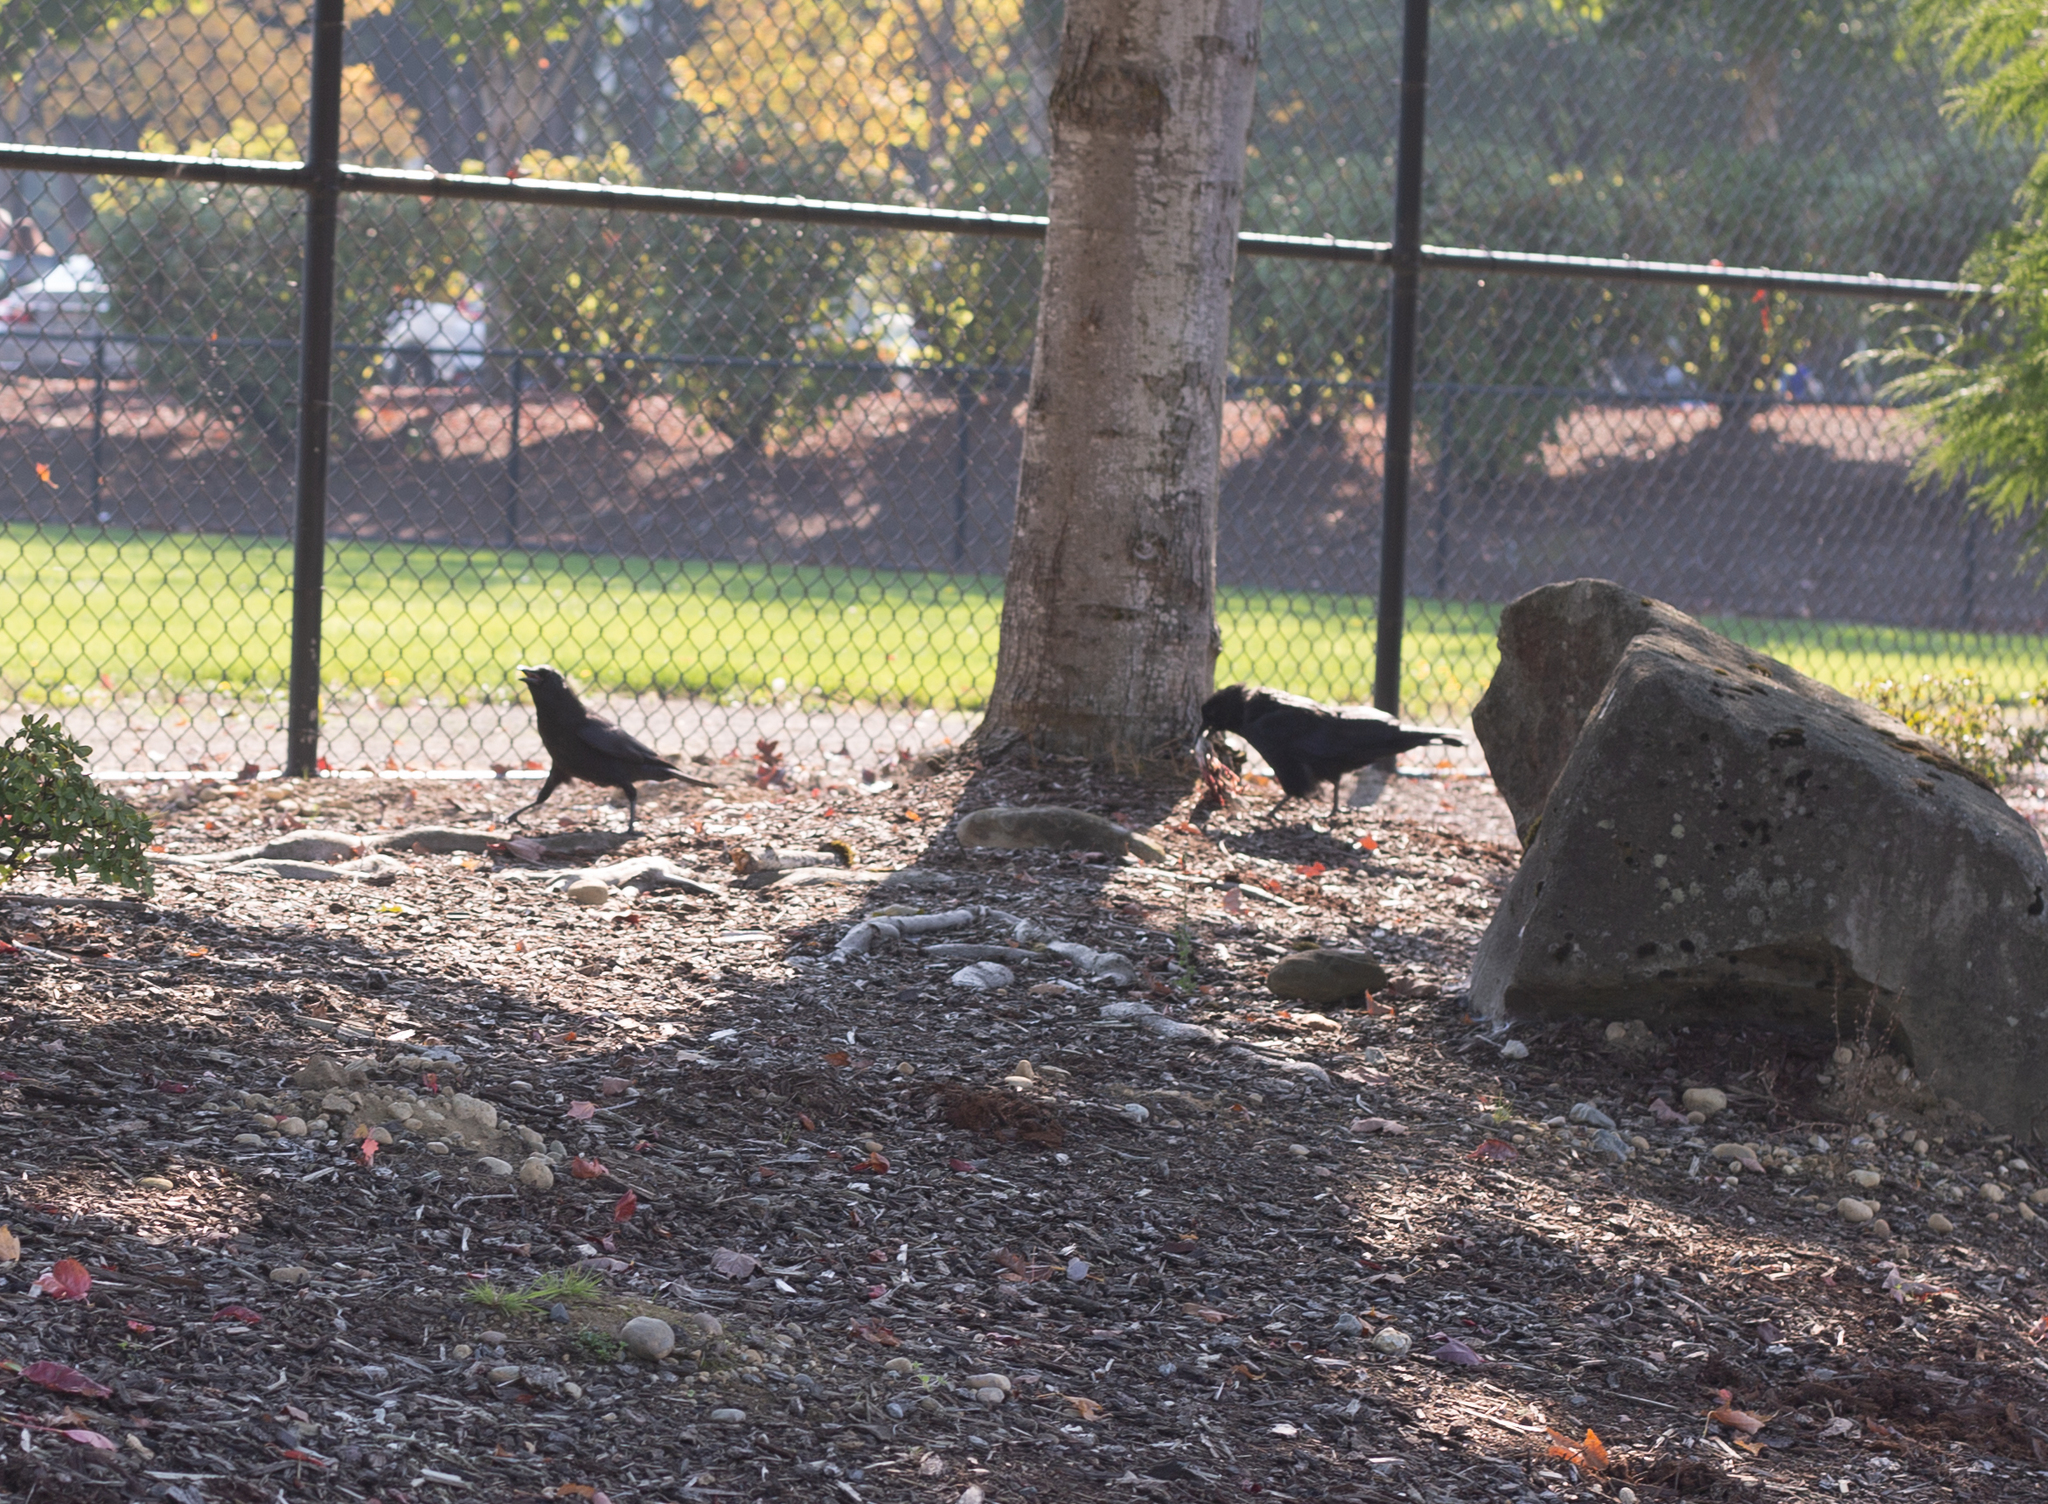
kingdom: Animalia
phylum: Chordata
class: Aves
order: Passeriformes
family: Corvidae
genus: Corvus
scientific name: Corvus corax
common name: Common raven
